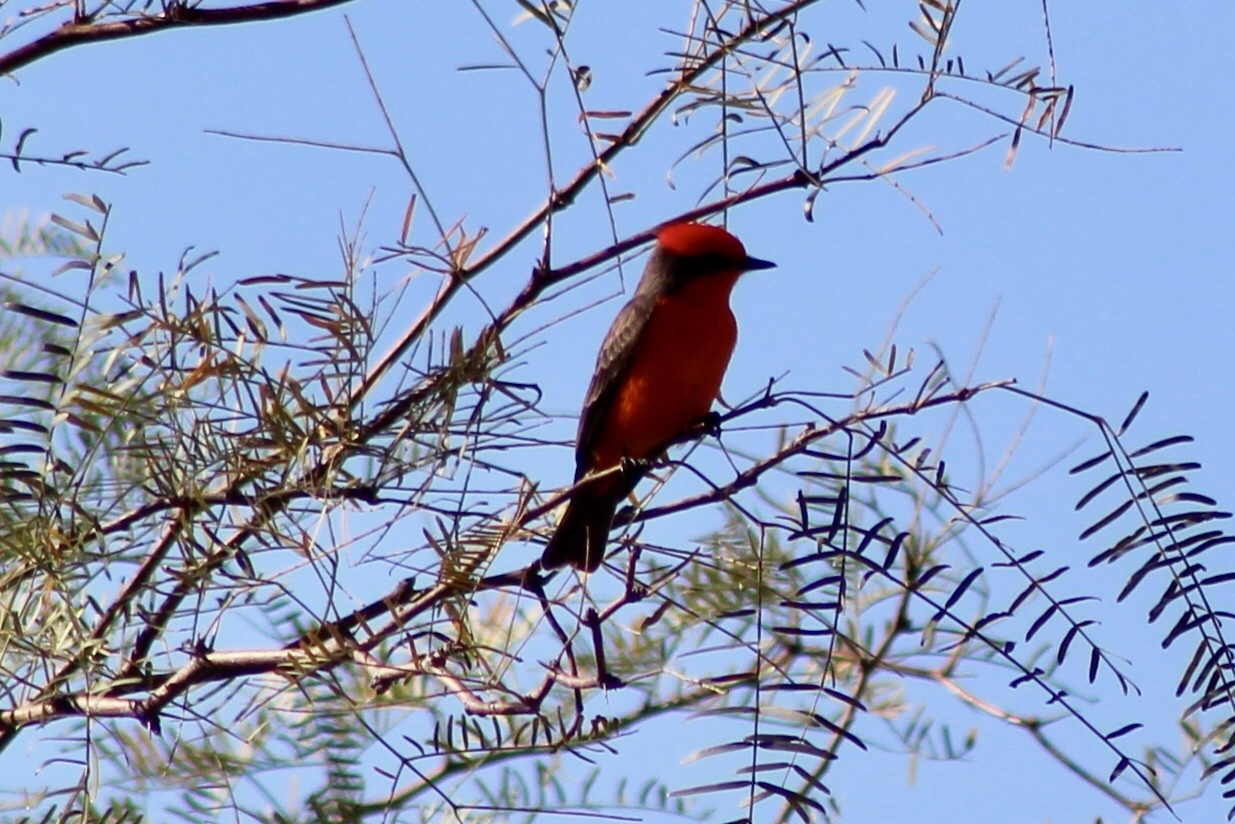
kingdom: Animalia
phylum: Chordata
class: Aves
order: Passeriformes
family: Tyrannidae
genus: Pyrocephalus
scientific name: Pyrocephalus rubinus
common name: Vermilion flycatcher
